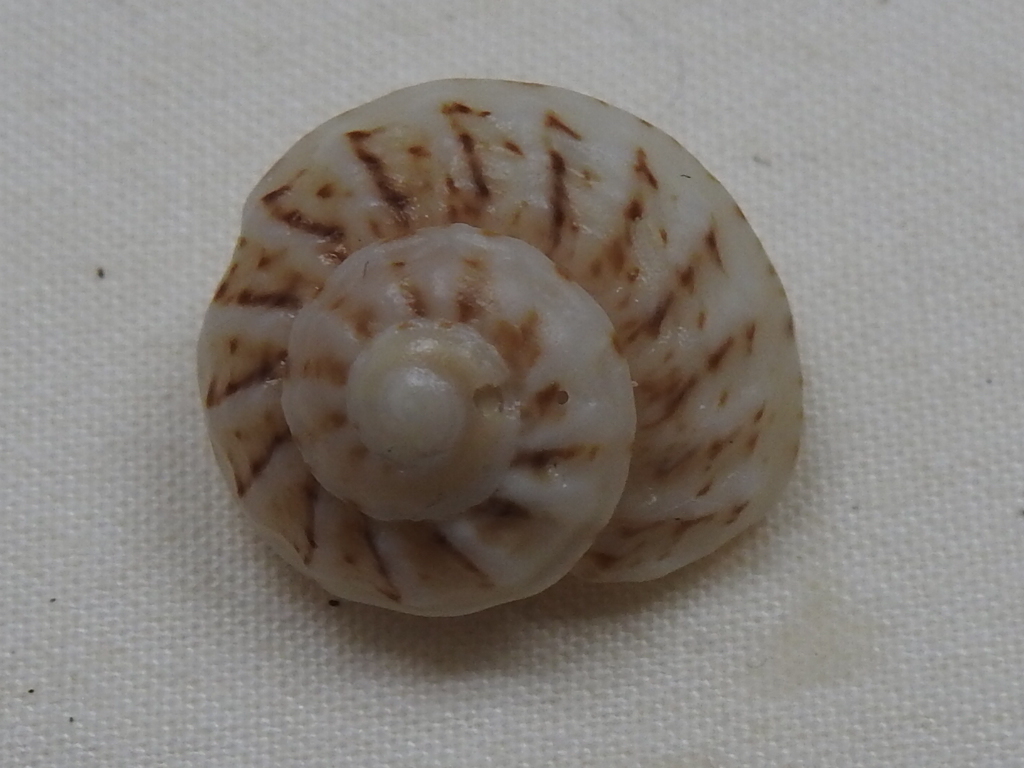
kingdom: Animalia
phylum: Mollusca
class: Gastropoda
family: Modulidae
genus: Modulus
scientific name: Modulus modulus
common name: Atlantic modulus
